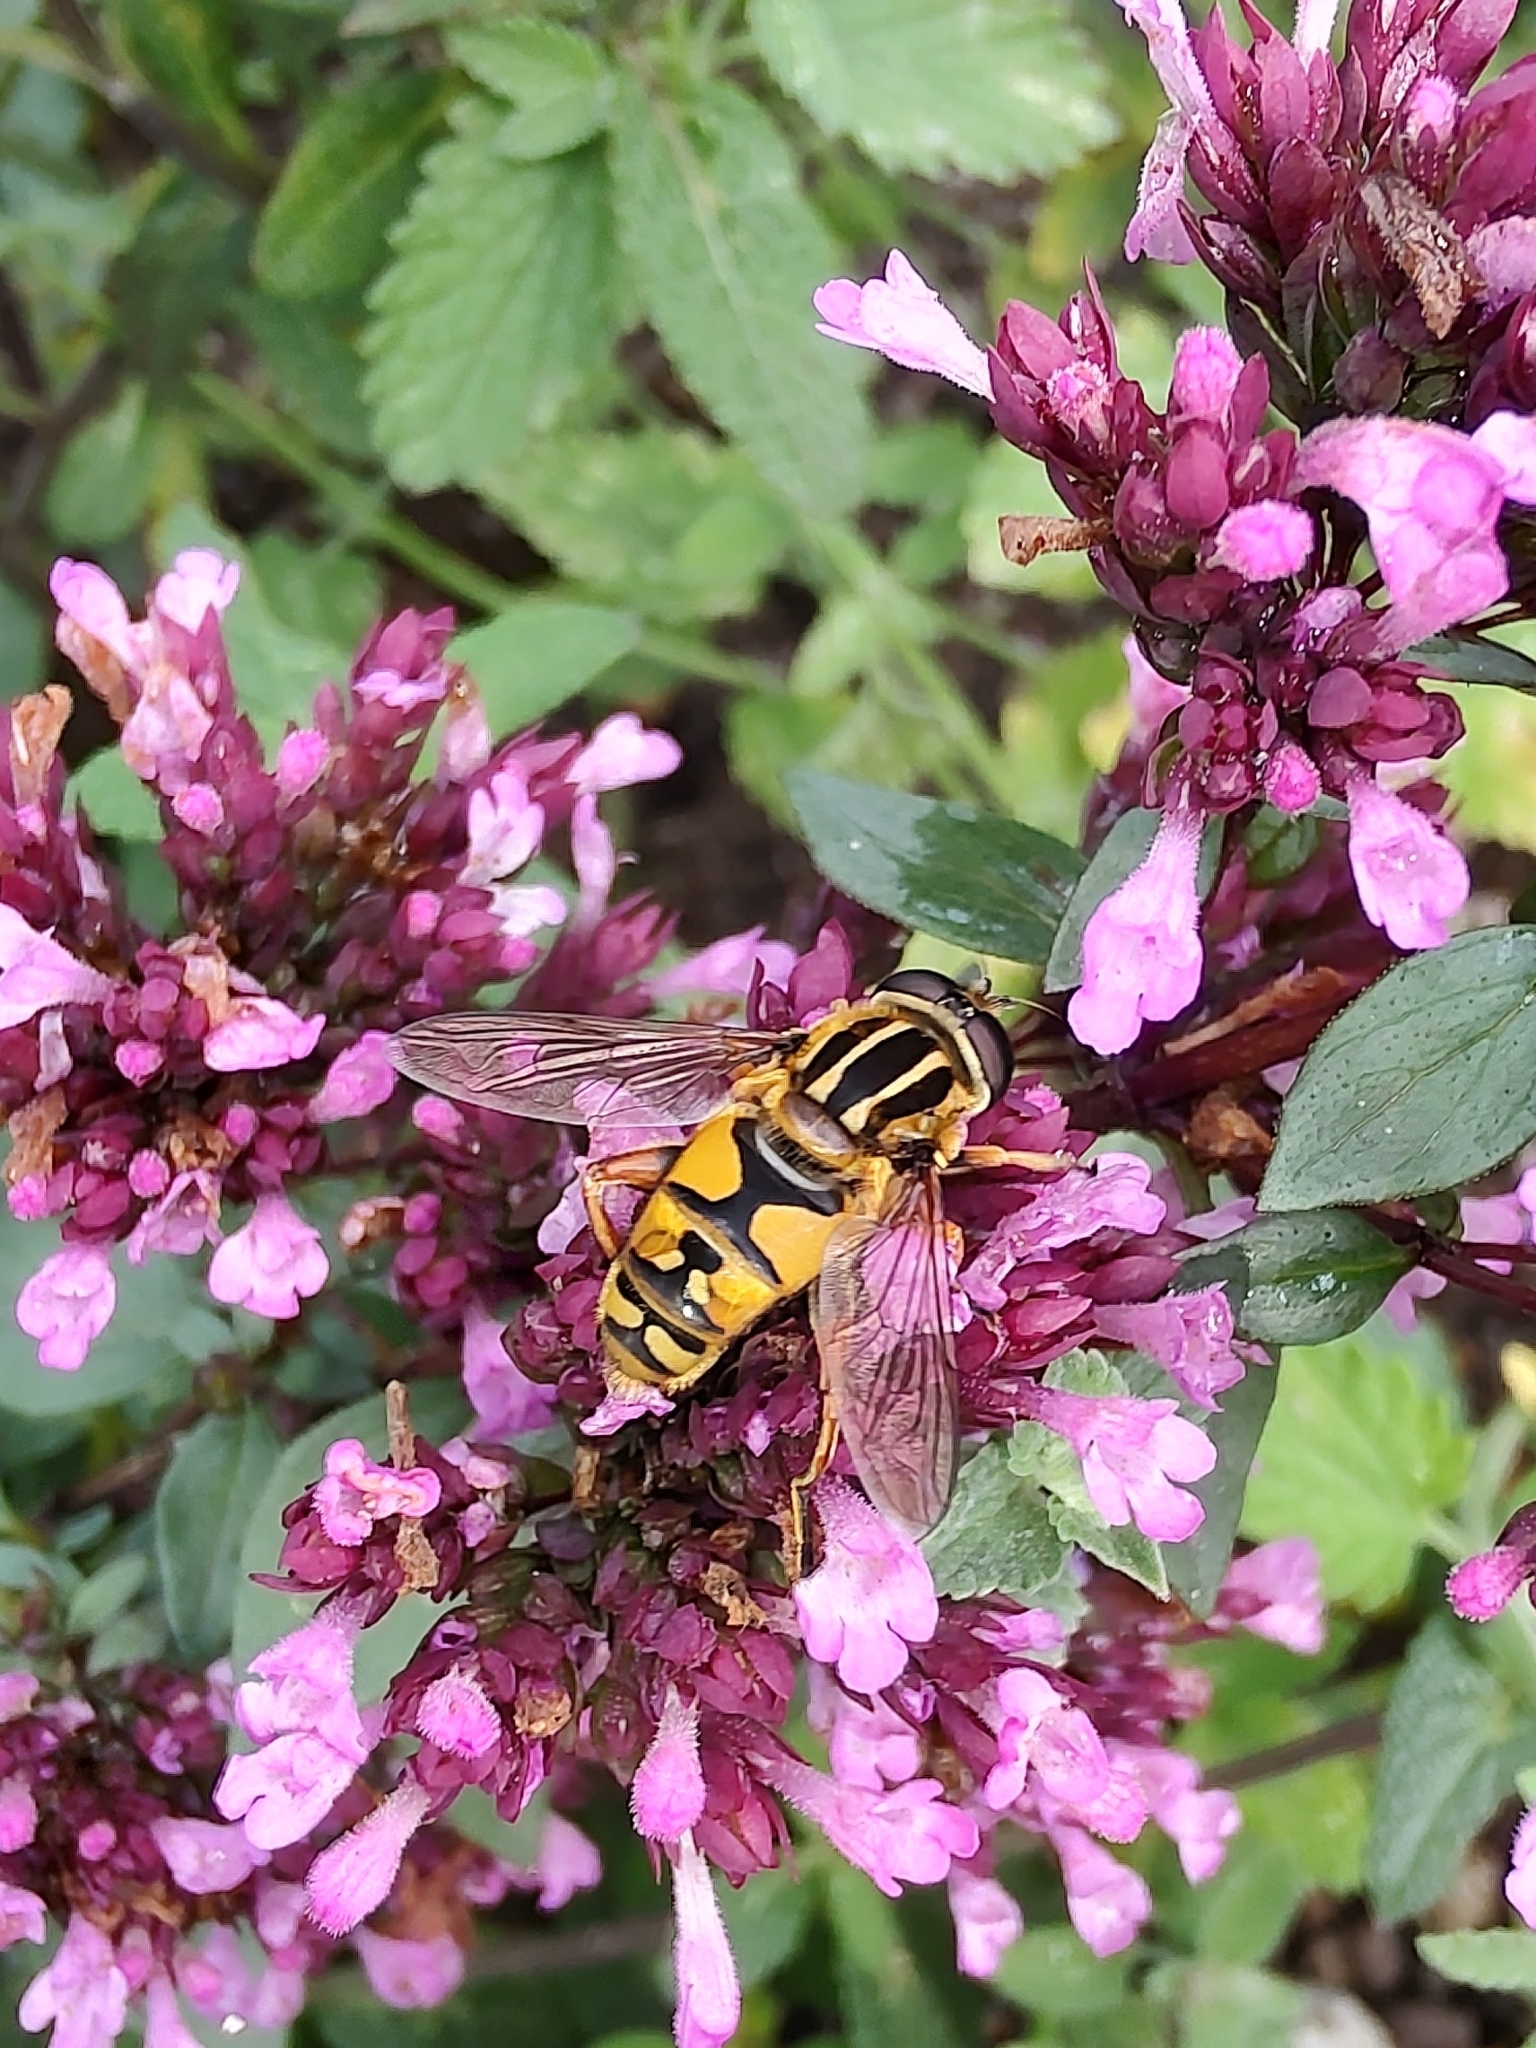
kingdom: Animalia
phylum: Arthropoda
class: Insecta
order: Diptera
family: Syrphidae
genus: Helophilus
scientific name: Helophilus pendulus
